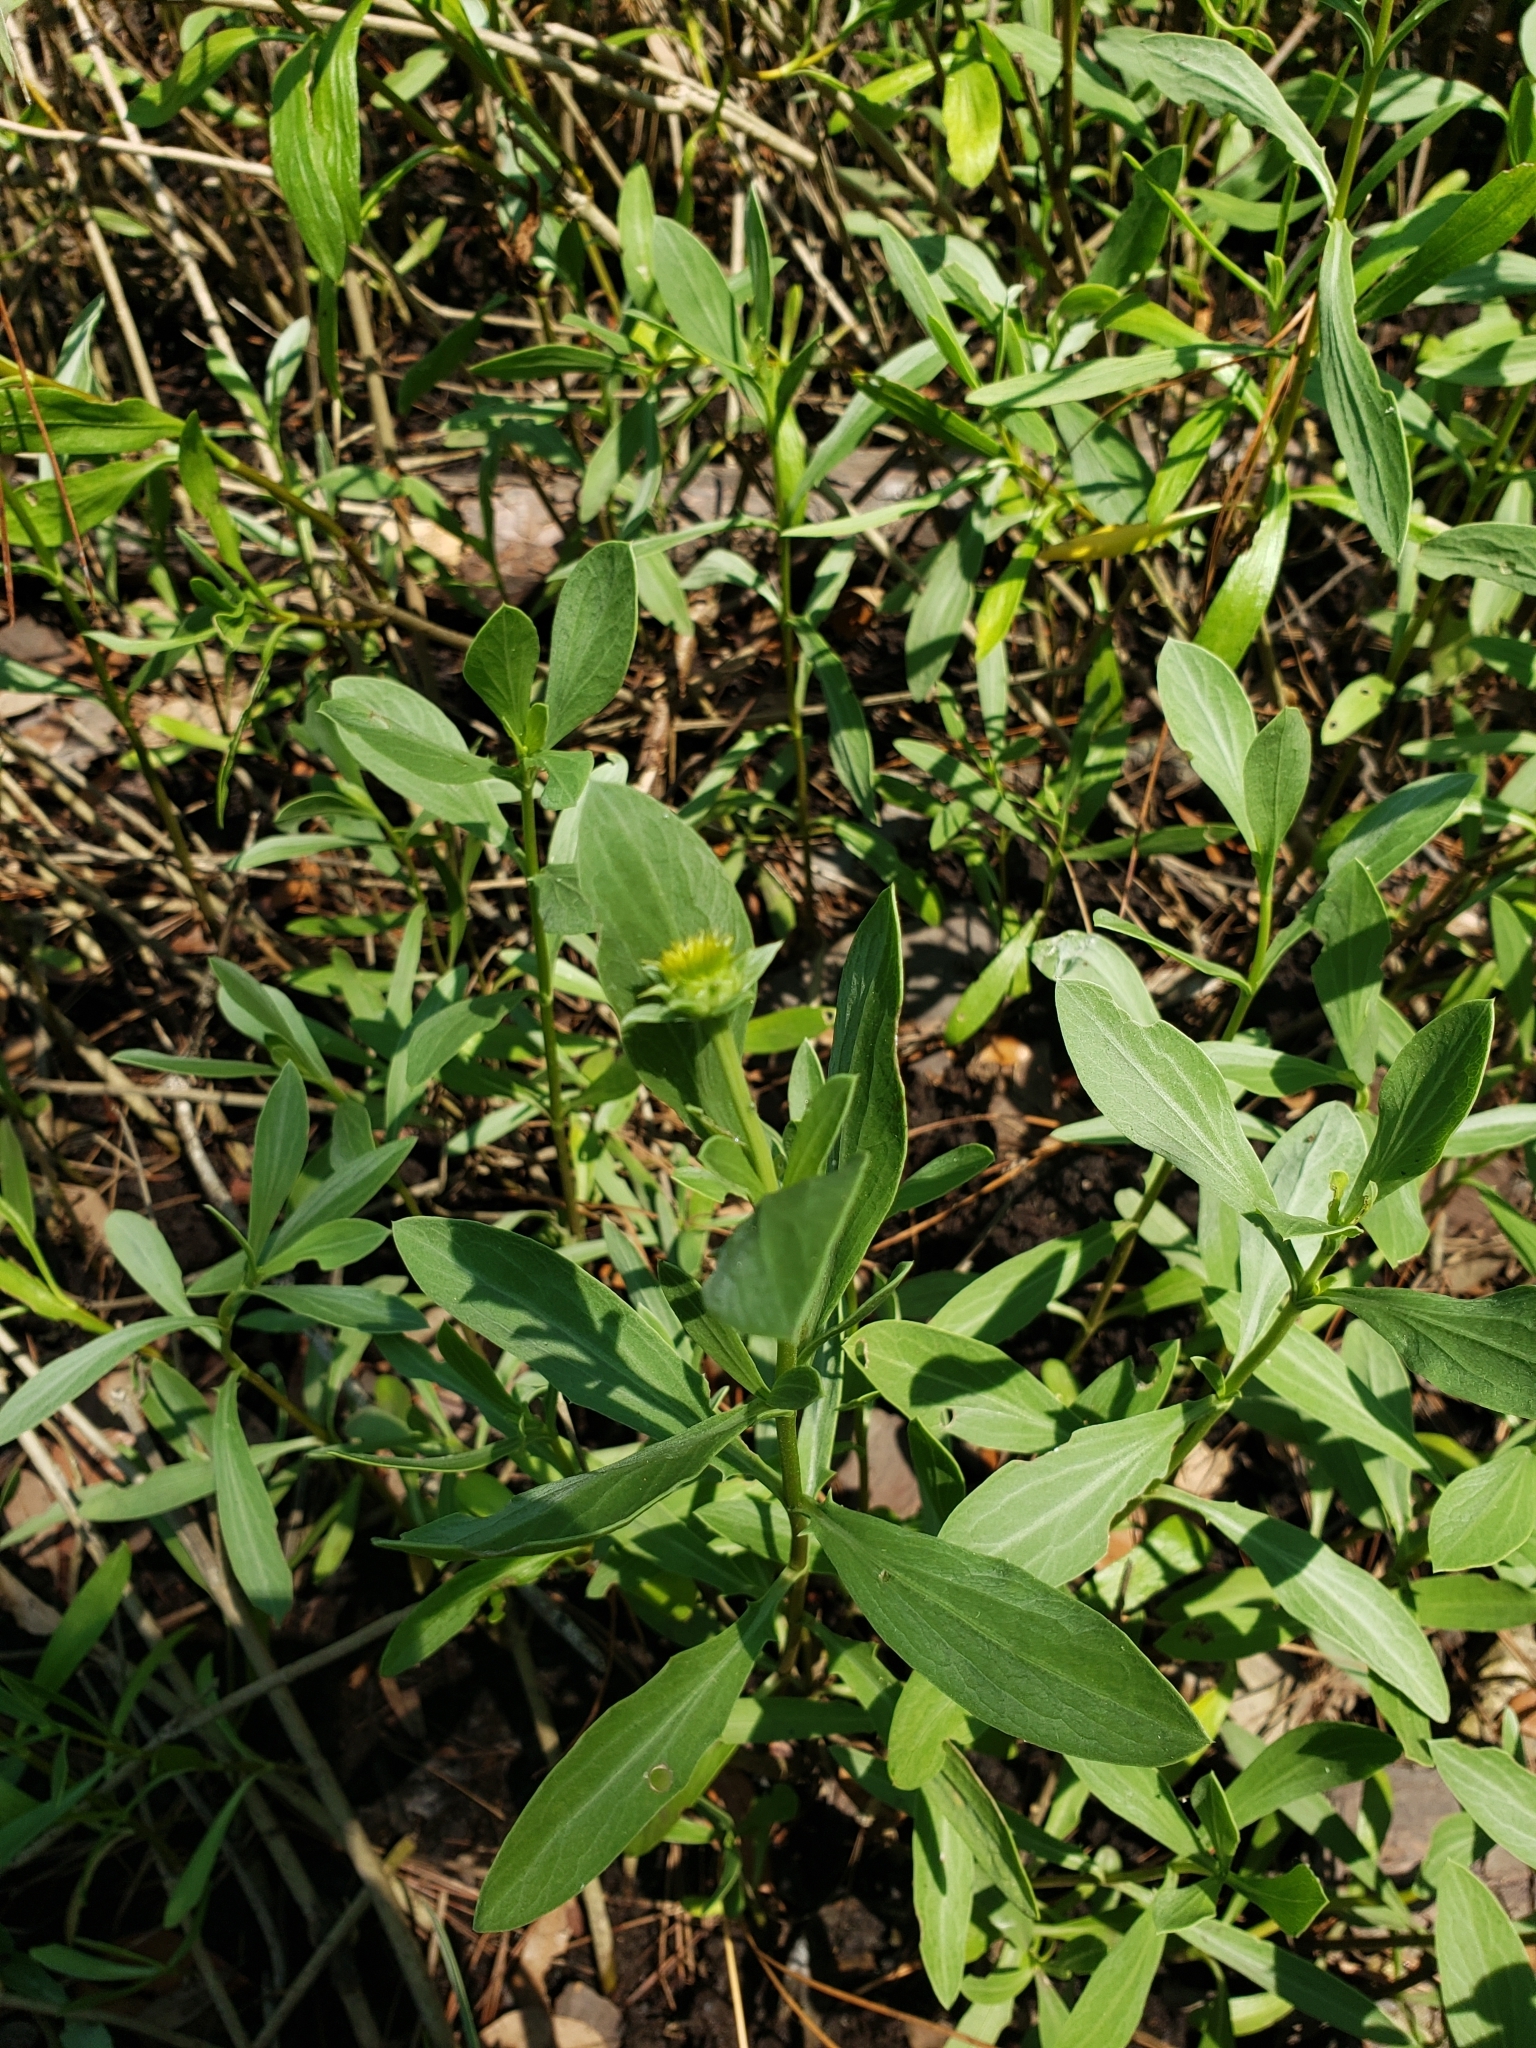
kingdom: Plantae
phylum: Tracheophyta
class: Magnoliopsida
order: Asterales
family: Asteraceae
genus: Borrichia
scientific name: Borrichia frutescens
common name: Sea oxeye
